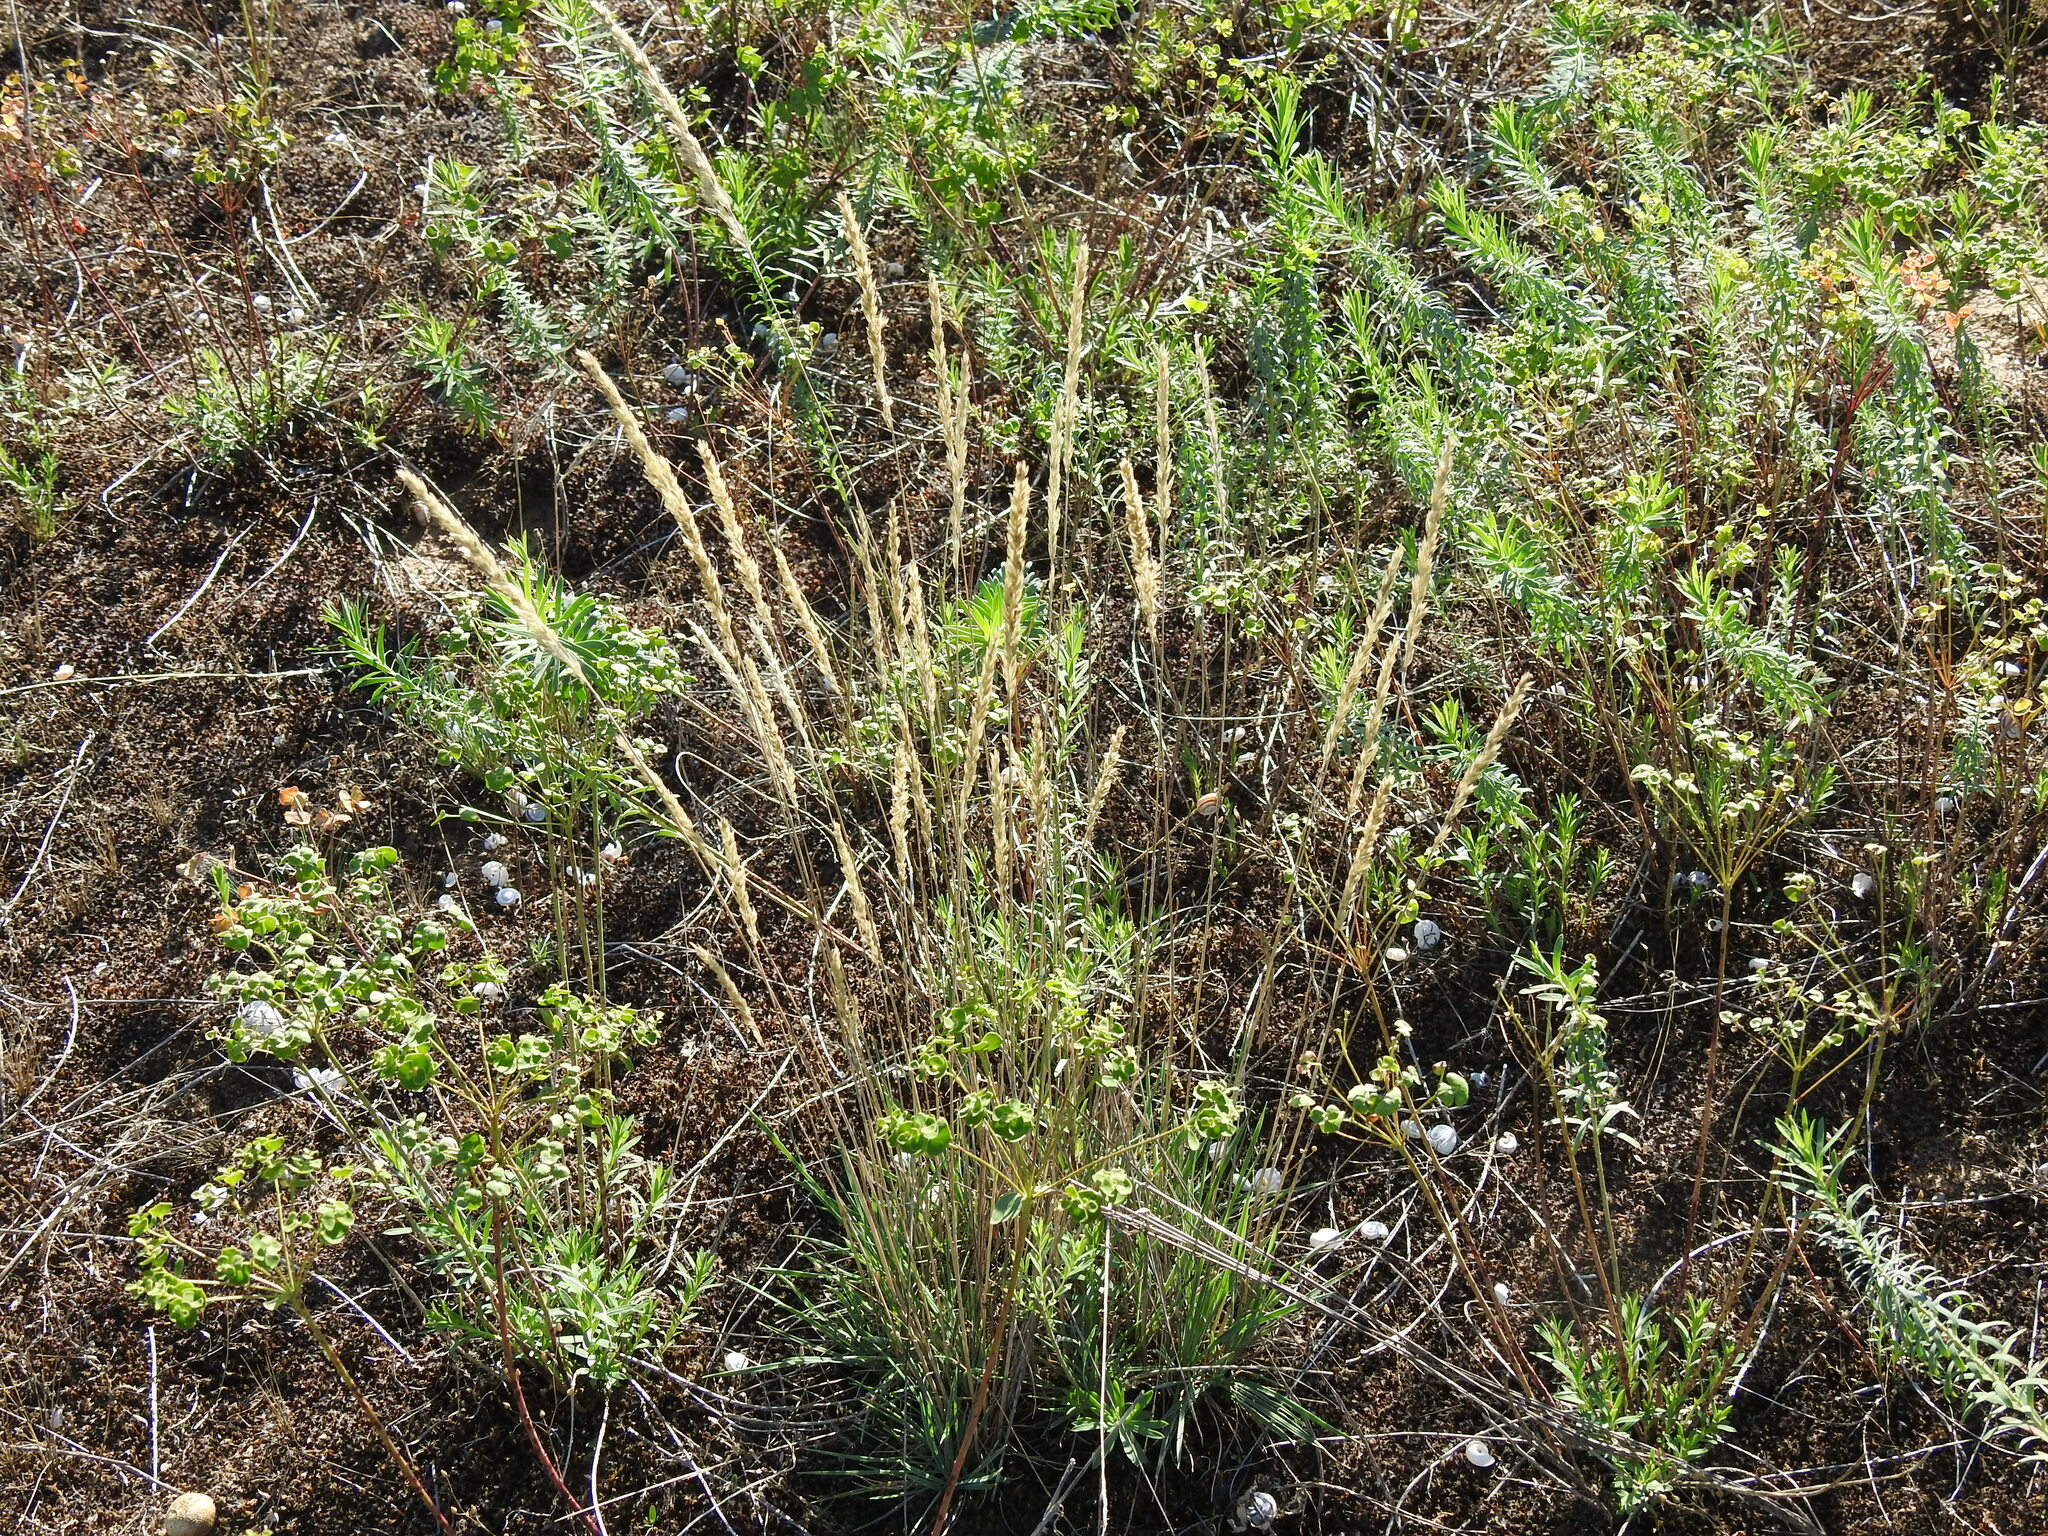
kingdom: Plantae
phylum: Tracheophyta
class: Liliopsida
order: Poales
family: Poaceae
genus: Koeleria
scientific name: Koeleria glauca
